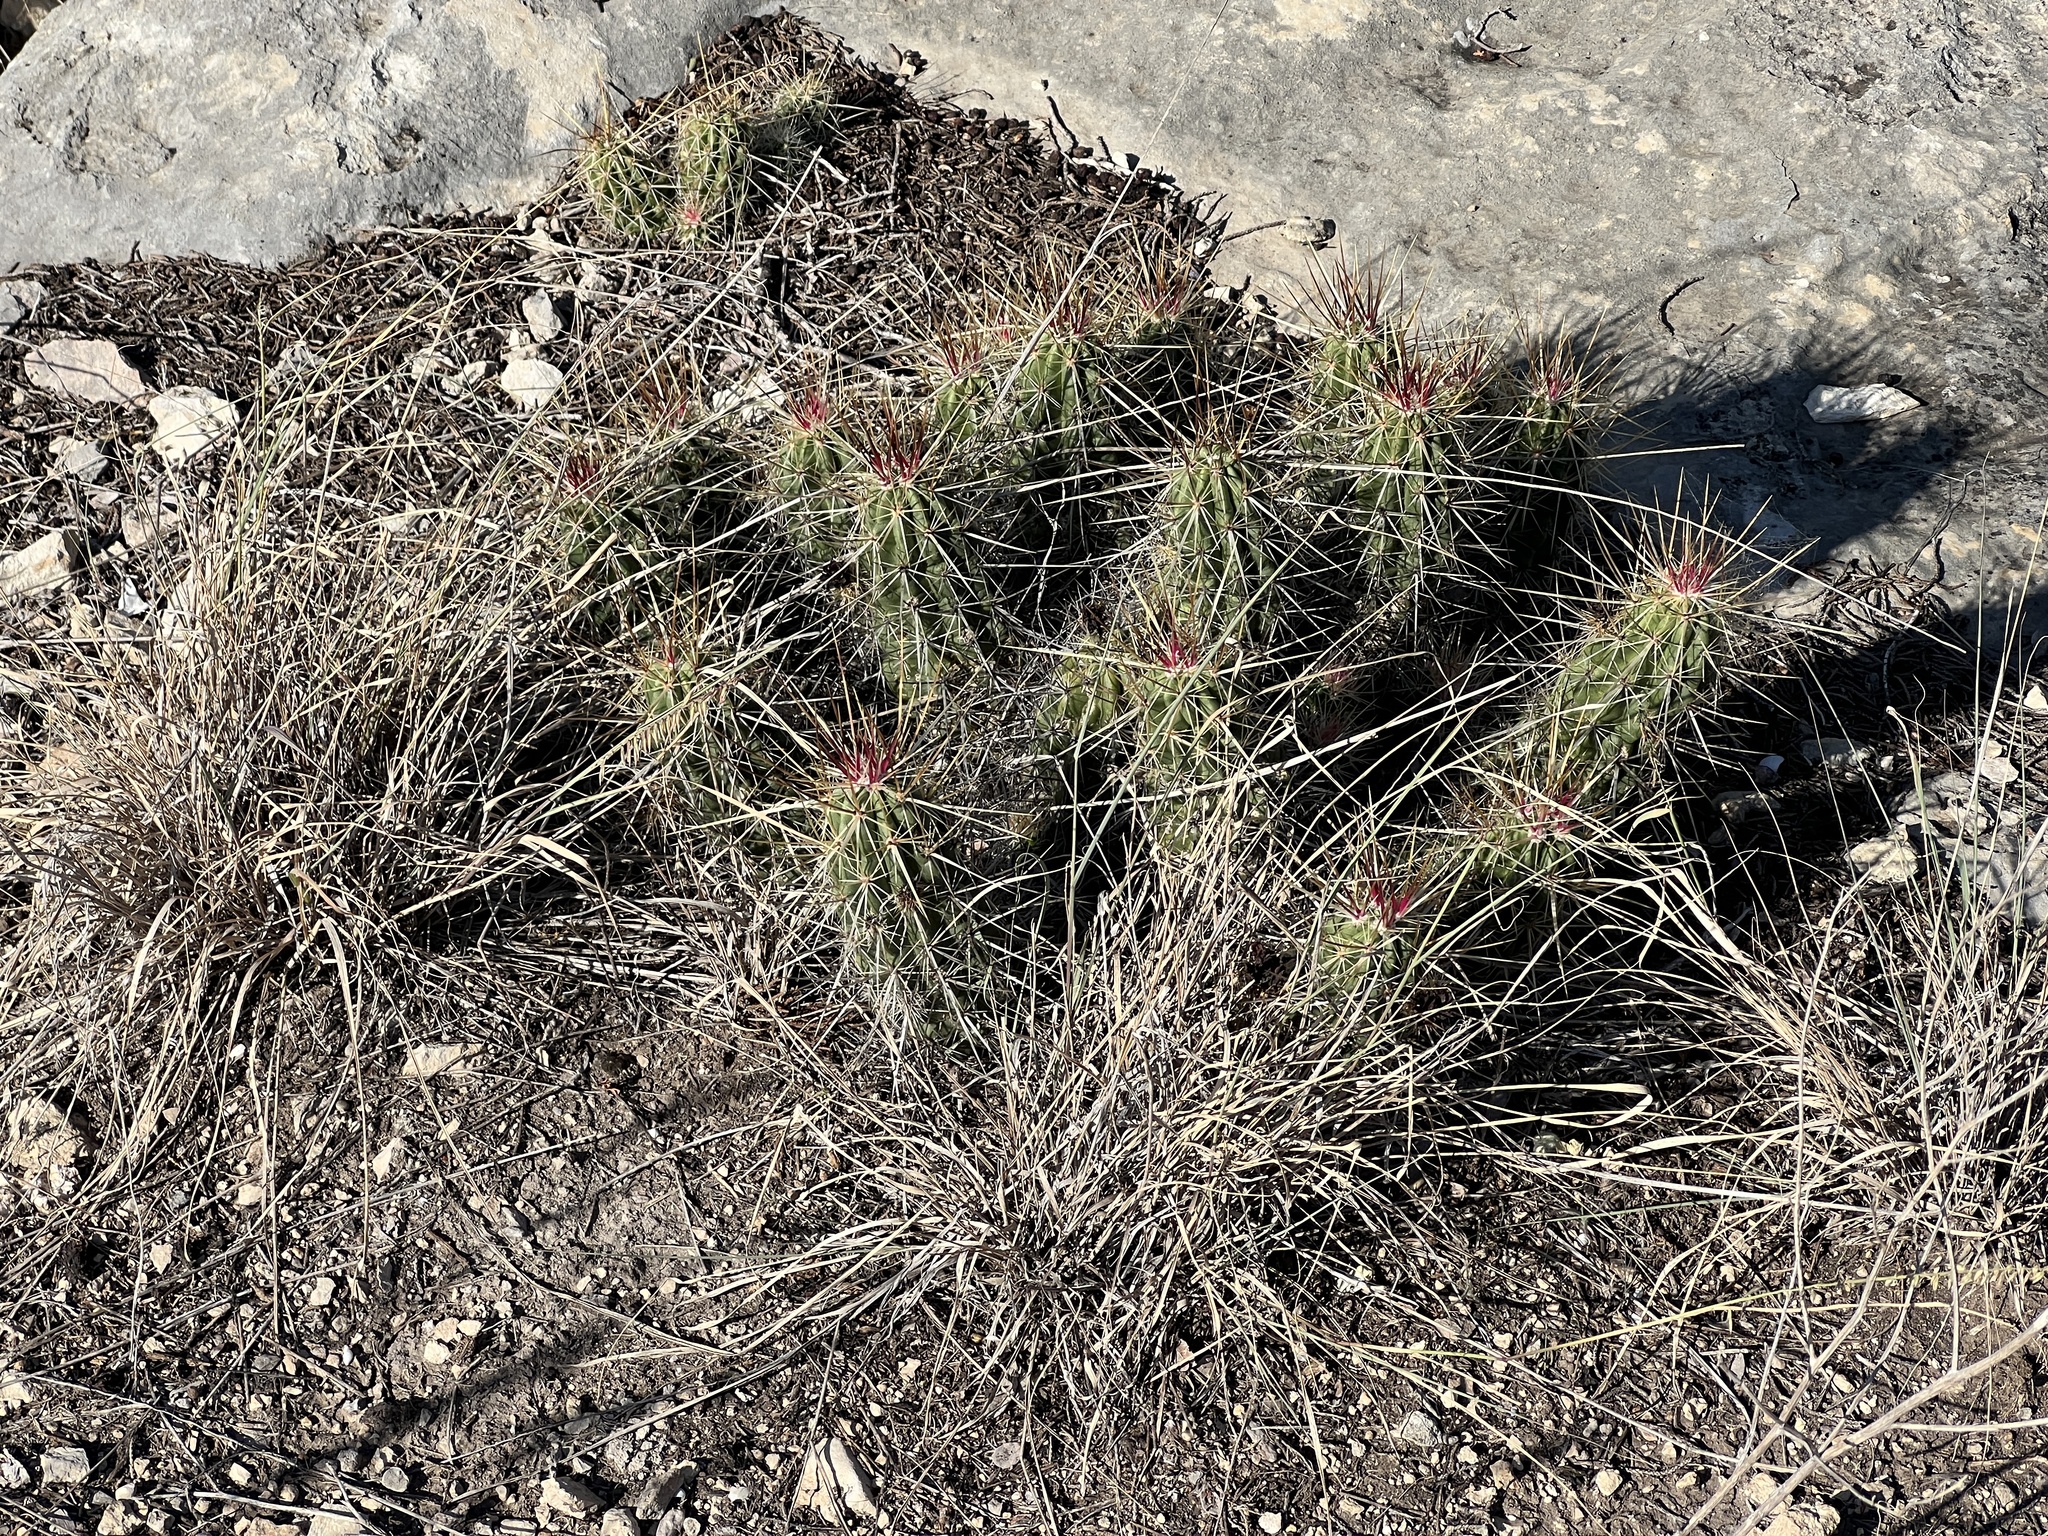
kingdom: Plantae
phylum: Tracheophyta
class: Magnoliopsida
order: Caryophyllales
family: Cactaceae
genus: Echinocereus
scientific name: Echinocereus enneacanthus
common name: Pitaya
